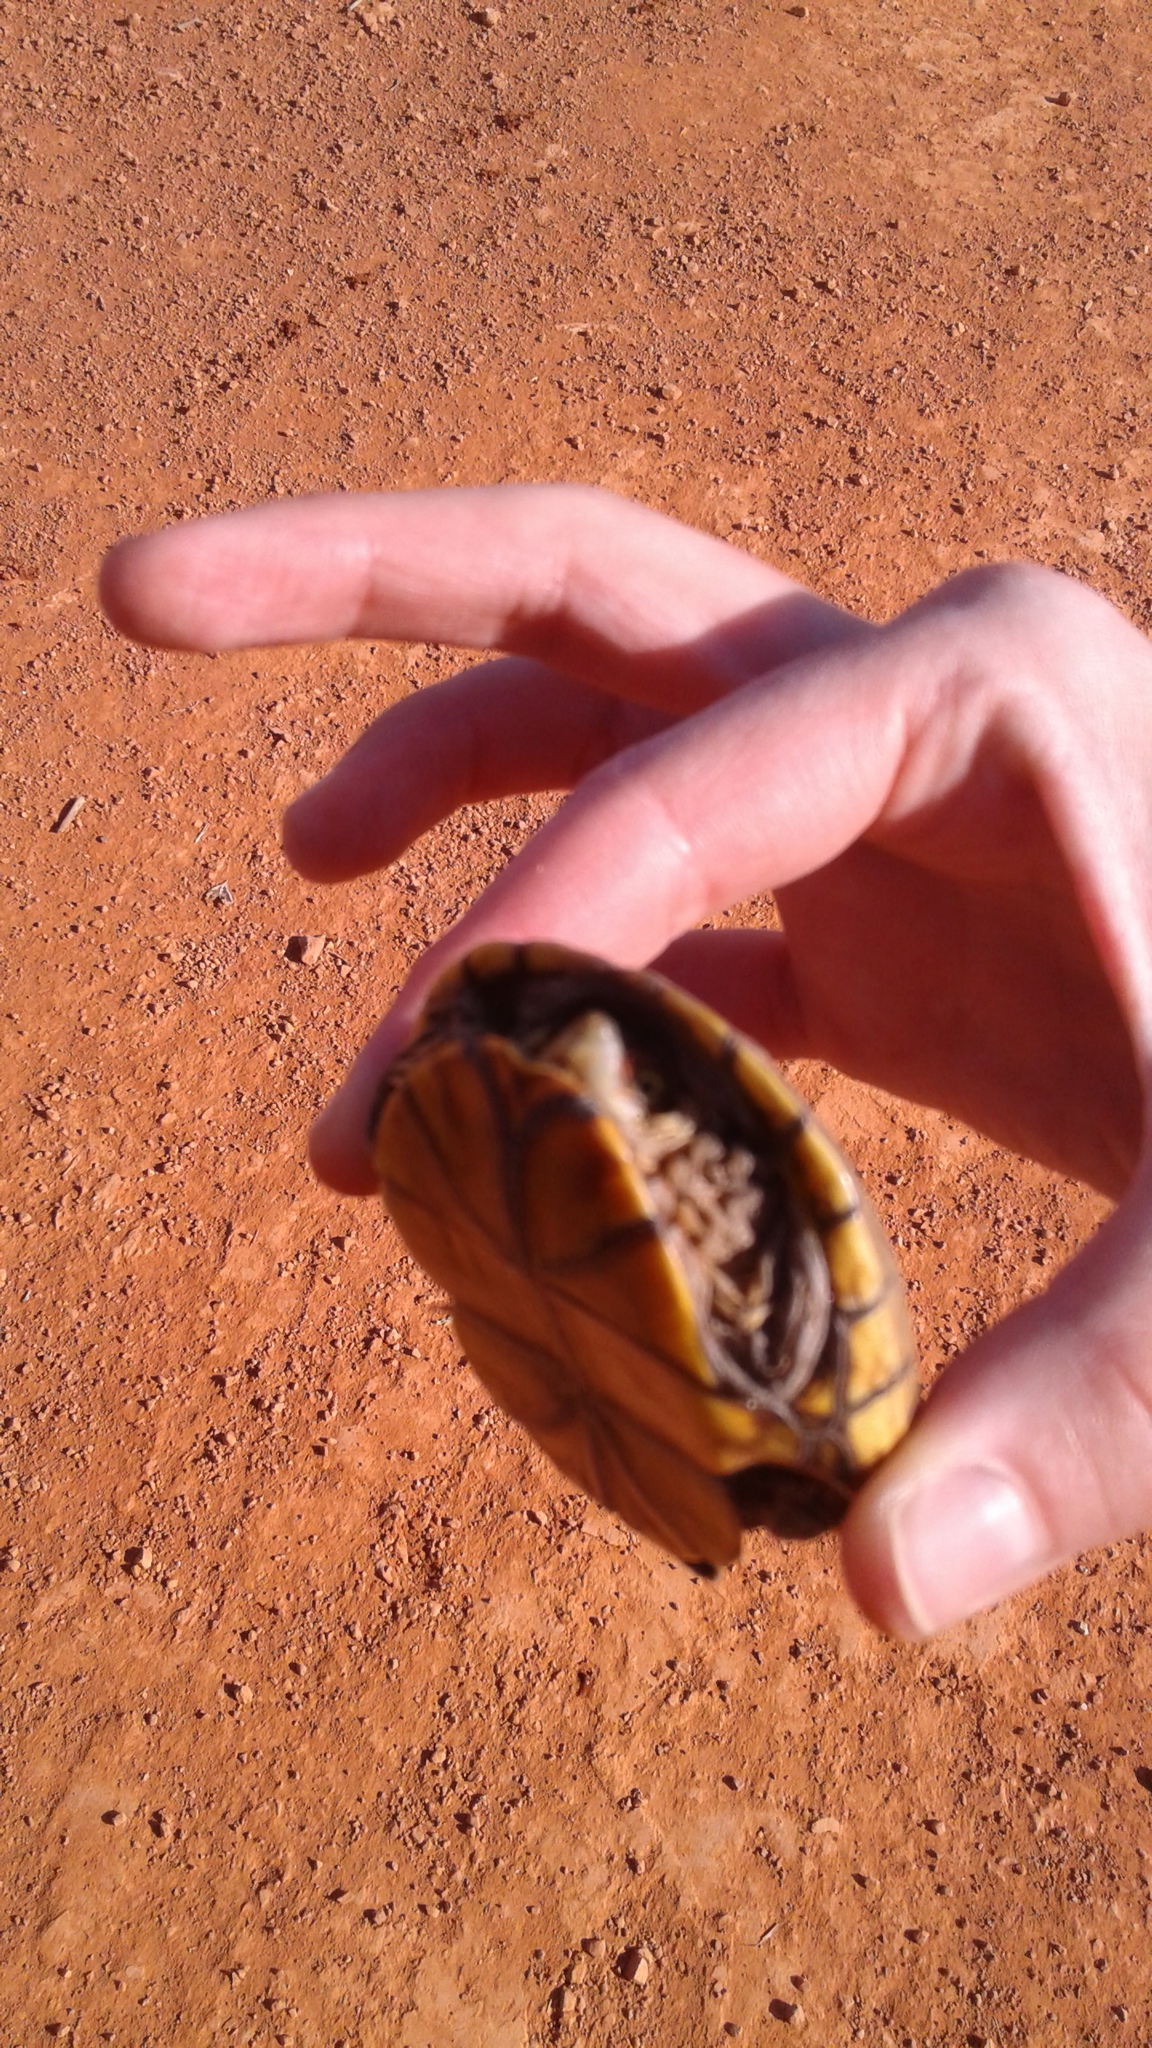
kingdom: Animalia
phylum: Chordata
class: Testudines
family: Kinosternidae
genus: Kinosternon
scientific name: Kinosternon flavescens
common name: Yellow mud turtle
